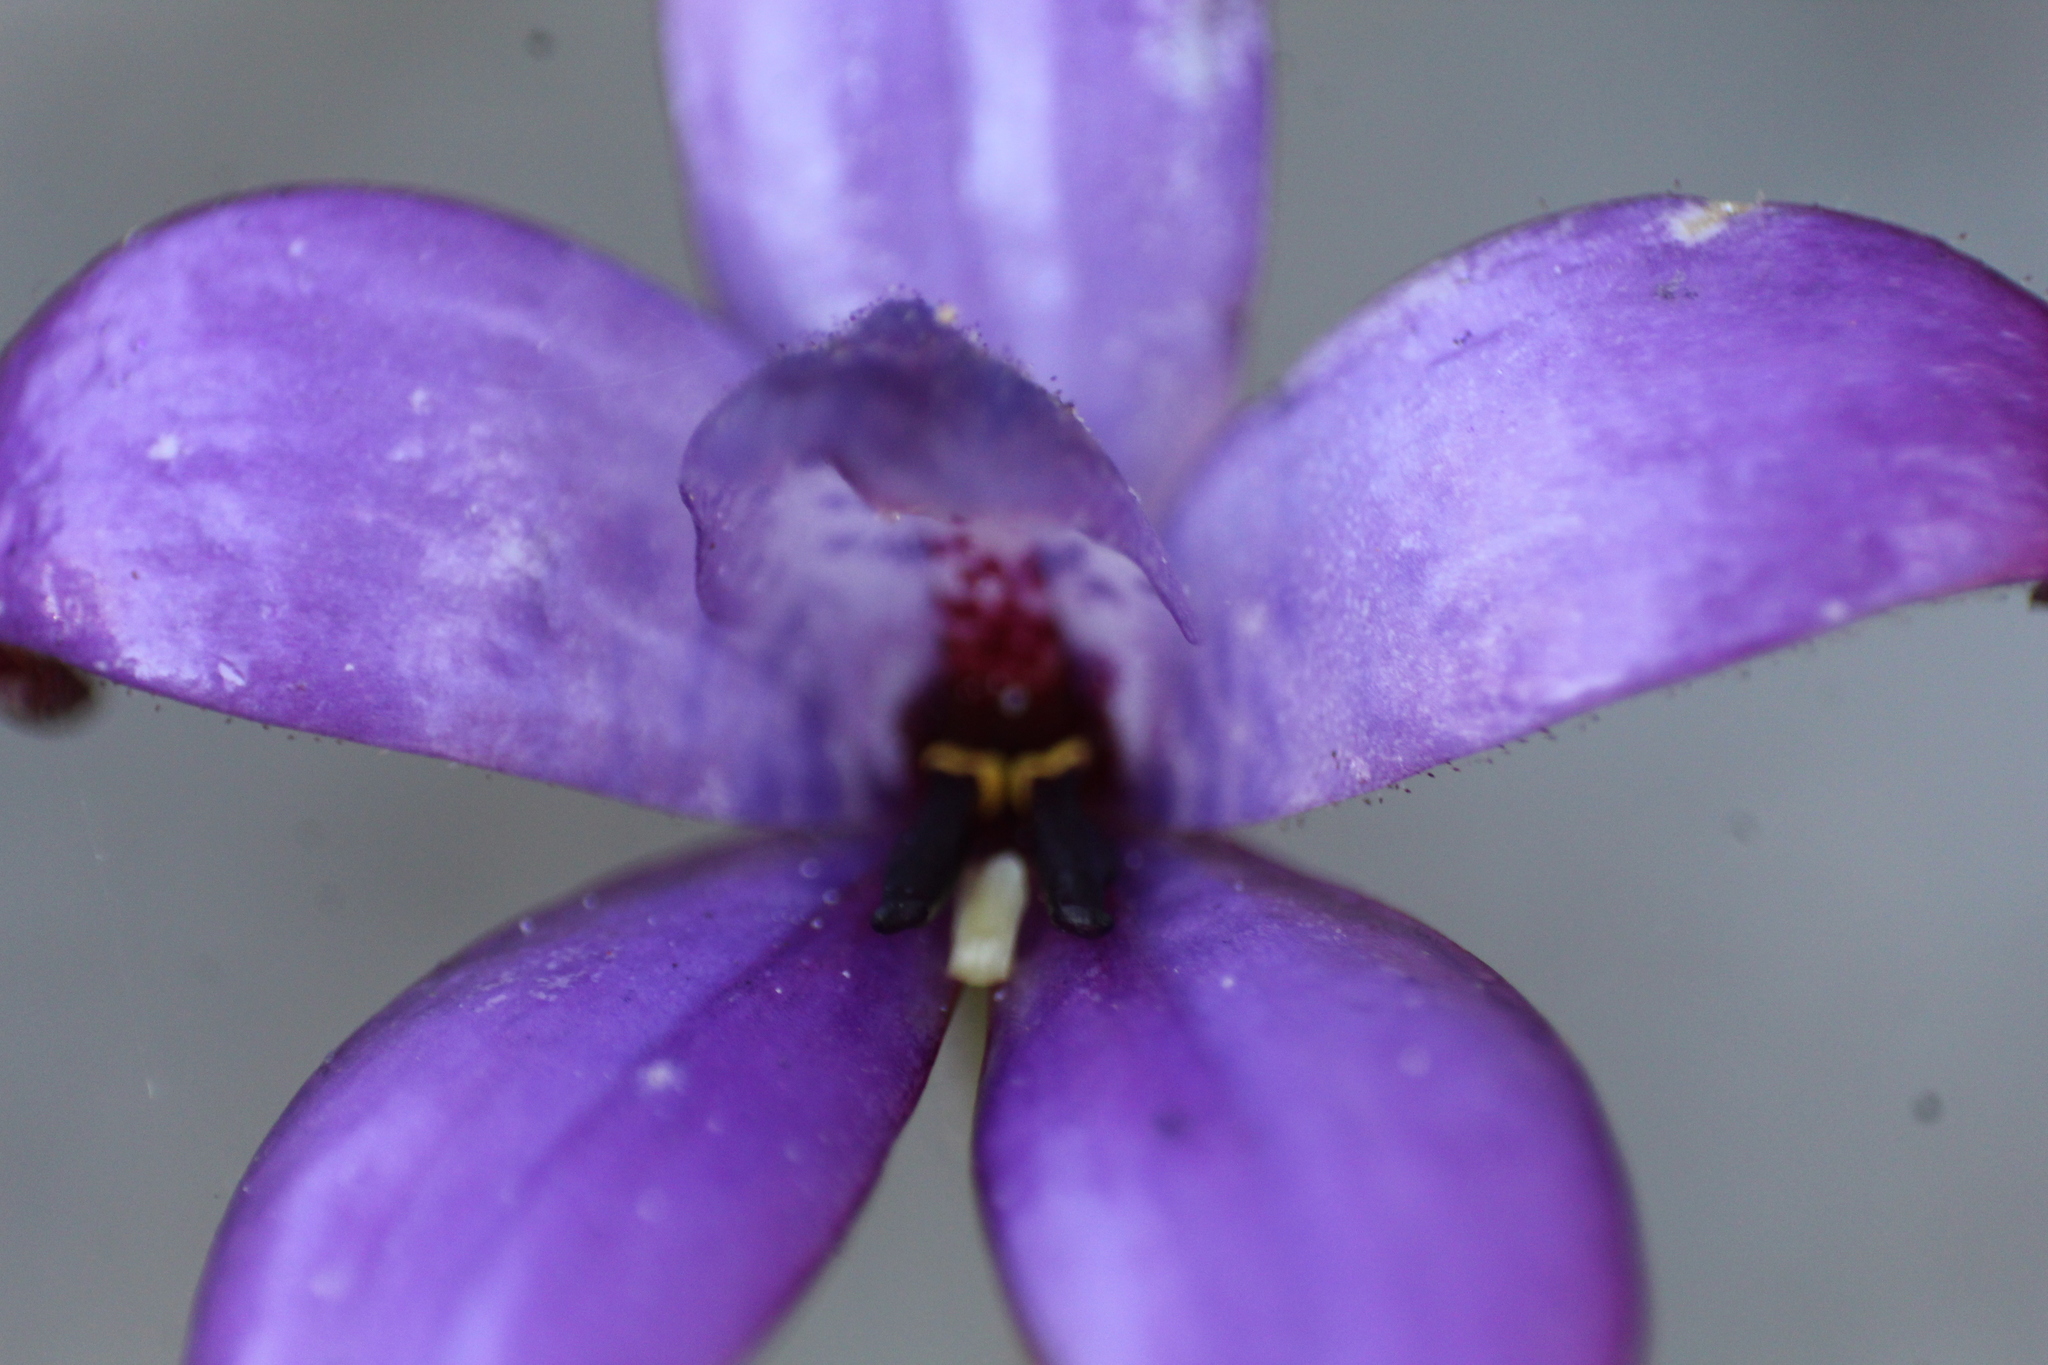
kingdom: Plantae
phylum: Tracheophyta
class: Liliopsida
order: Asparagales
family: Orchidaceae
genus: Caladenia
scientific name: Caladenia brunonis
